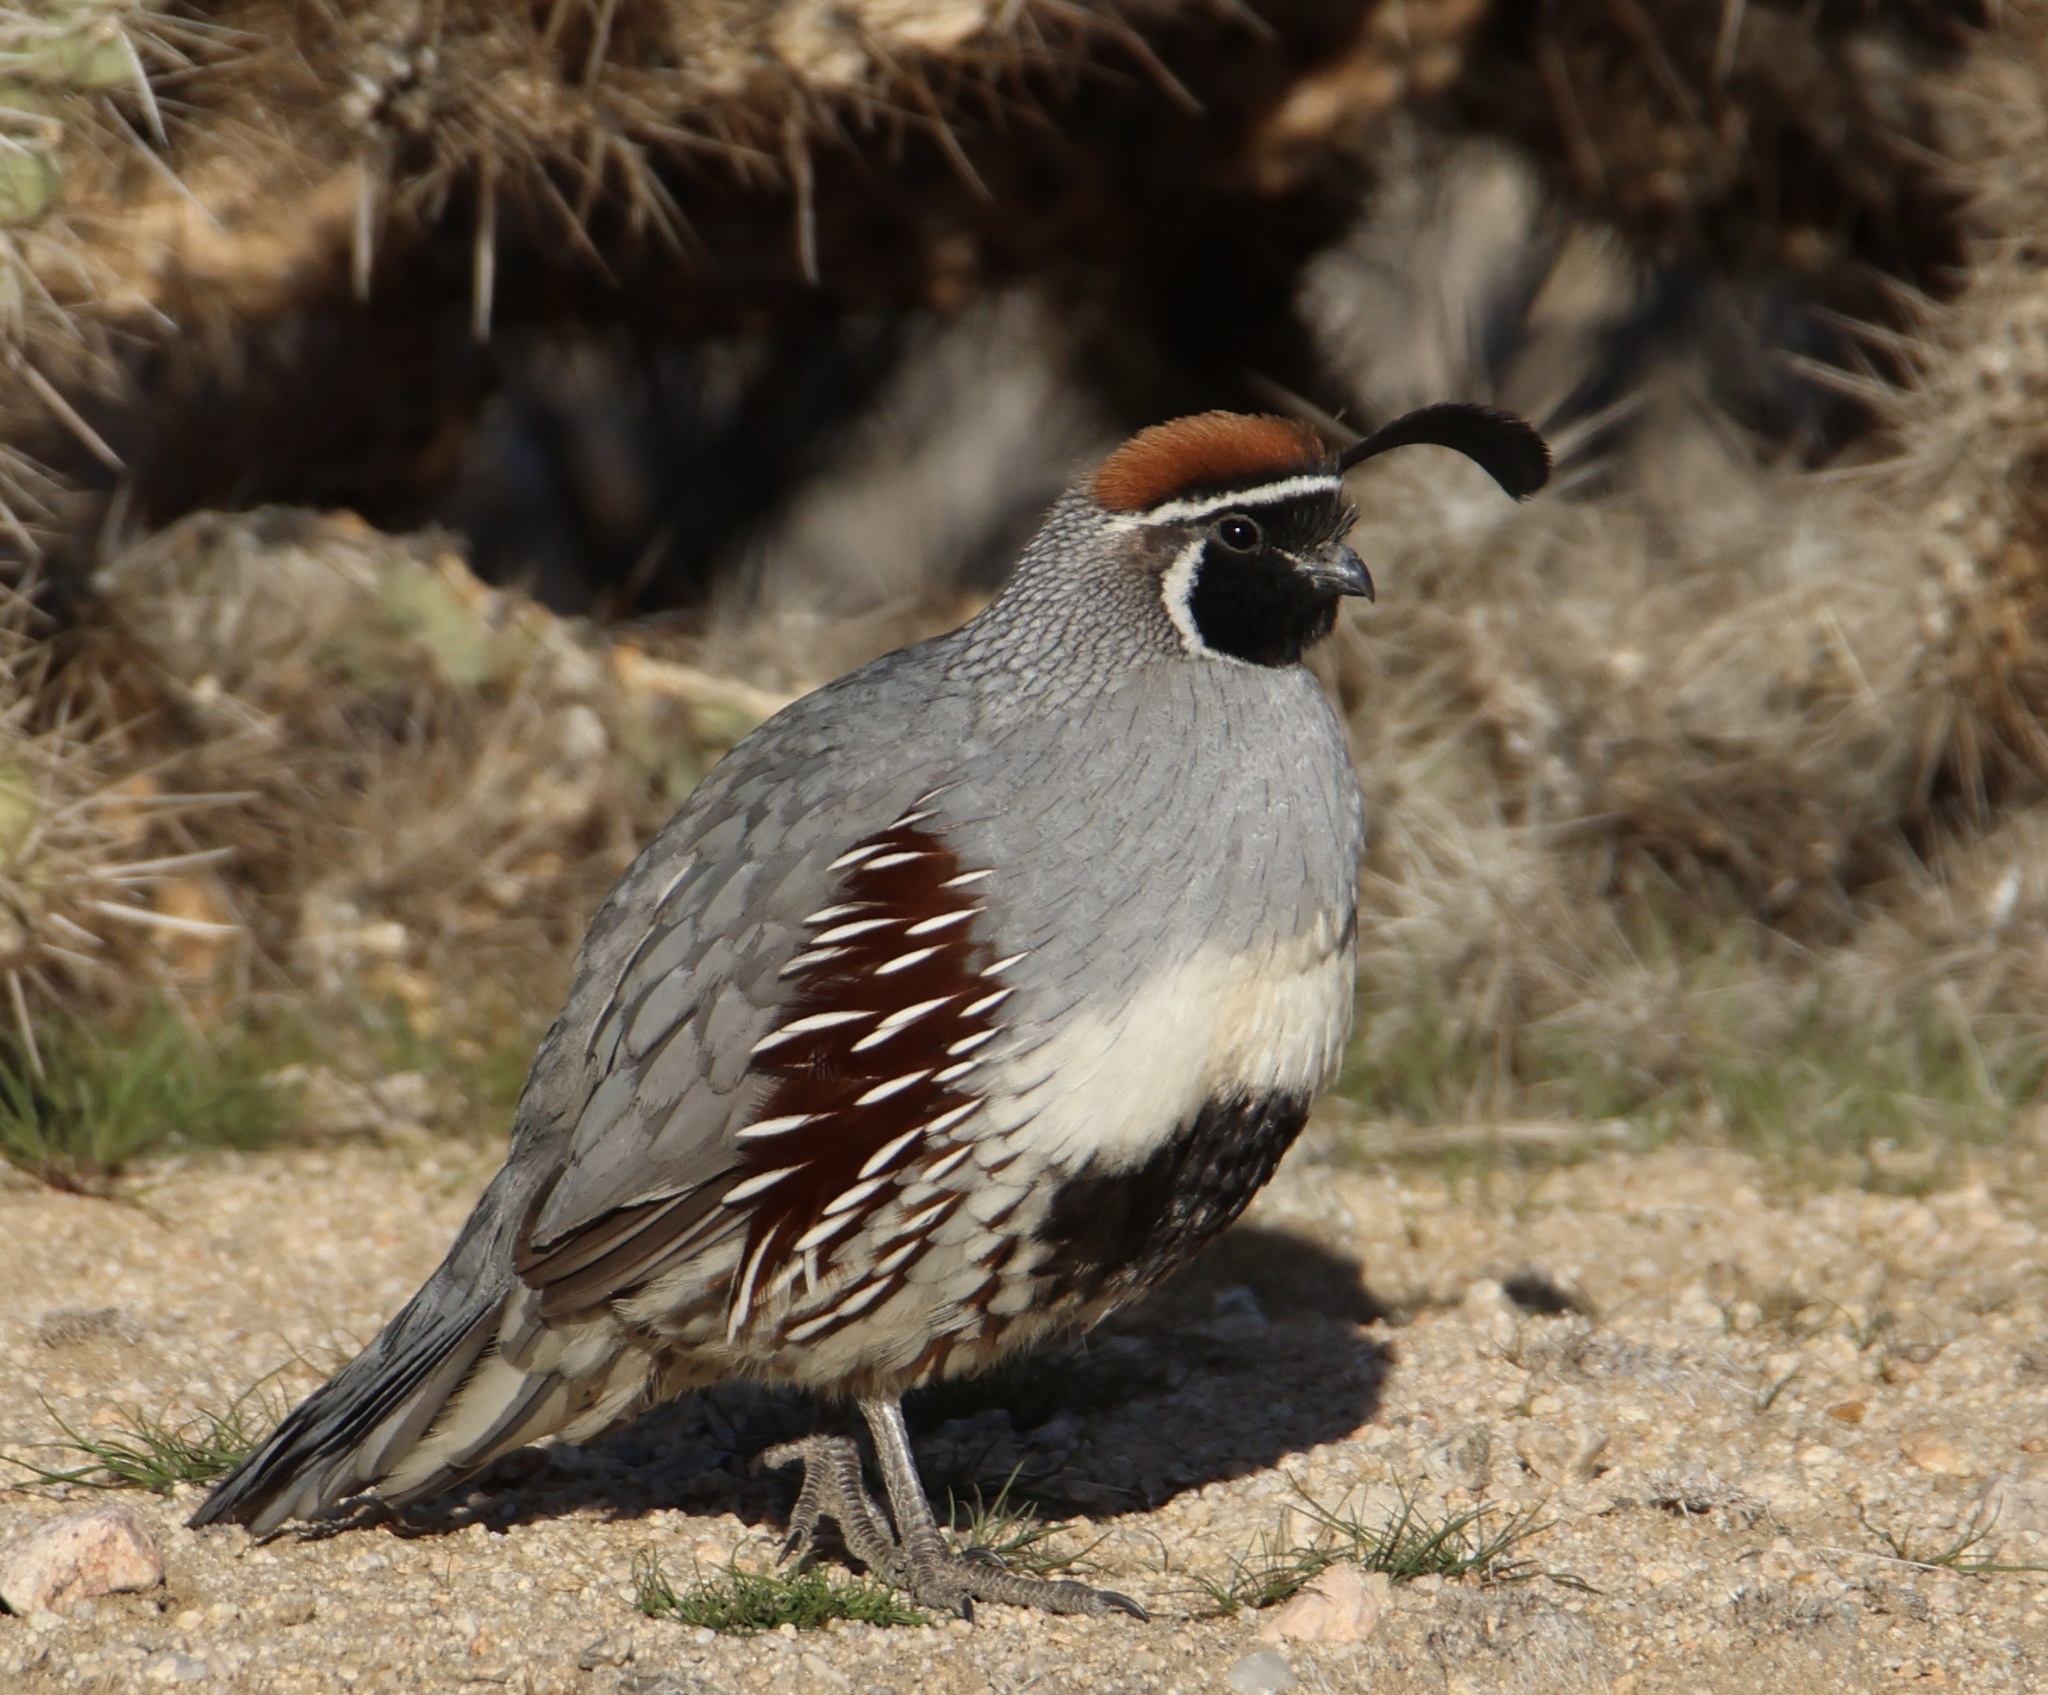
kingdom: Animalia
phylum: Chordata
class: Aves
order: Galliformes
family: Odontophoridae
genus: Callipepla
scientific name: Callipepla gambelii
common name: Gambel's quail
